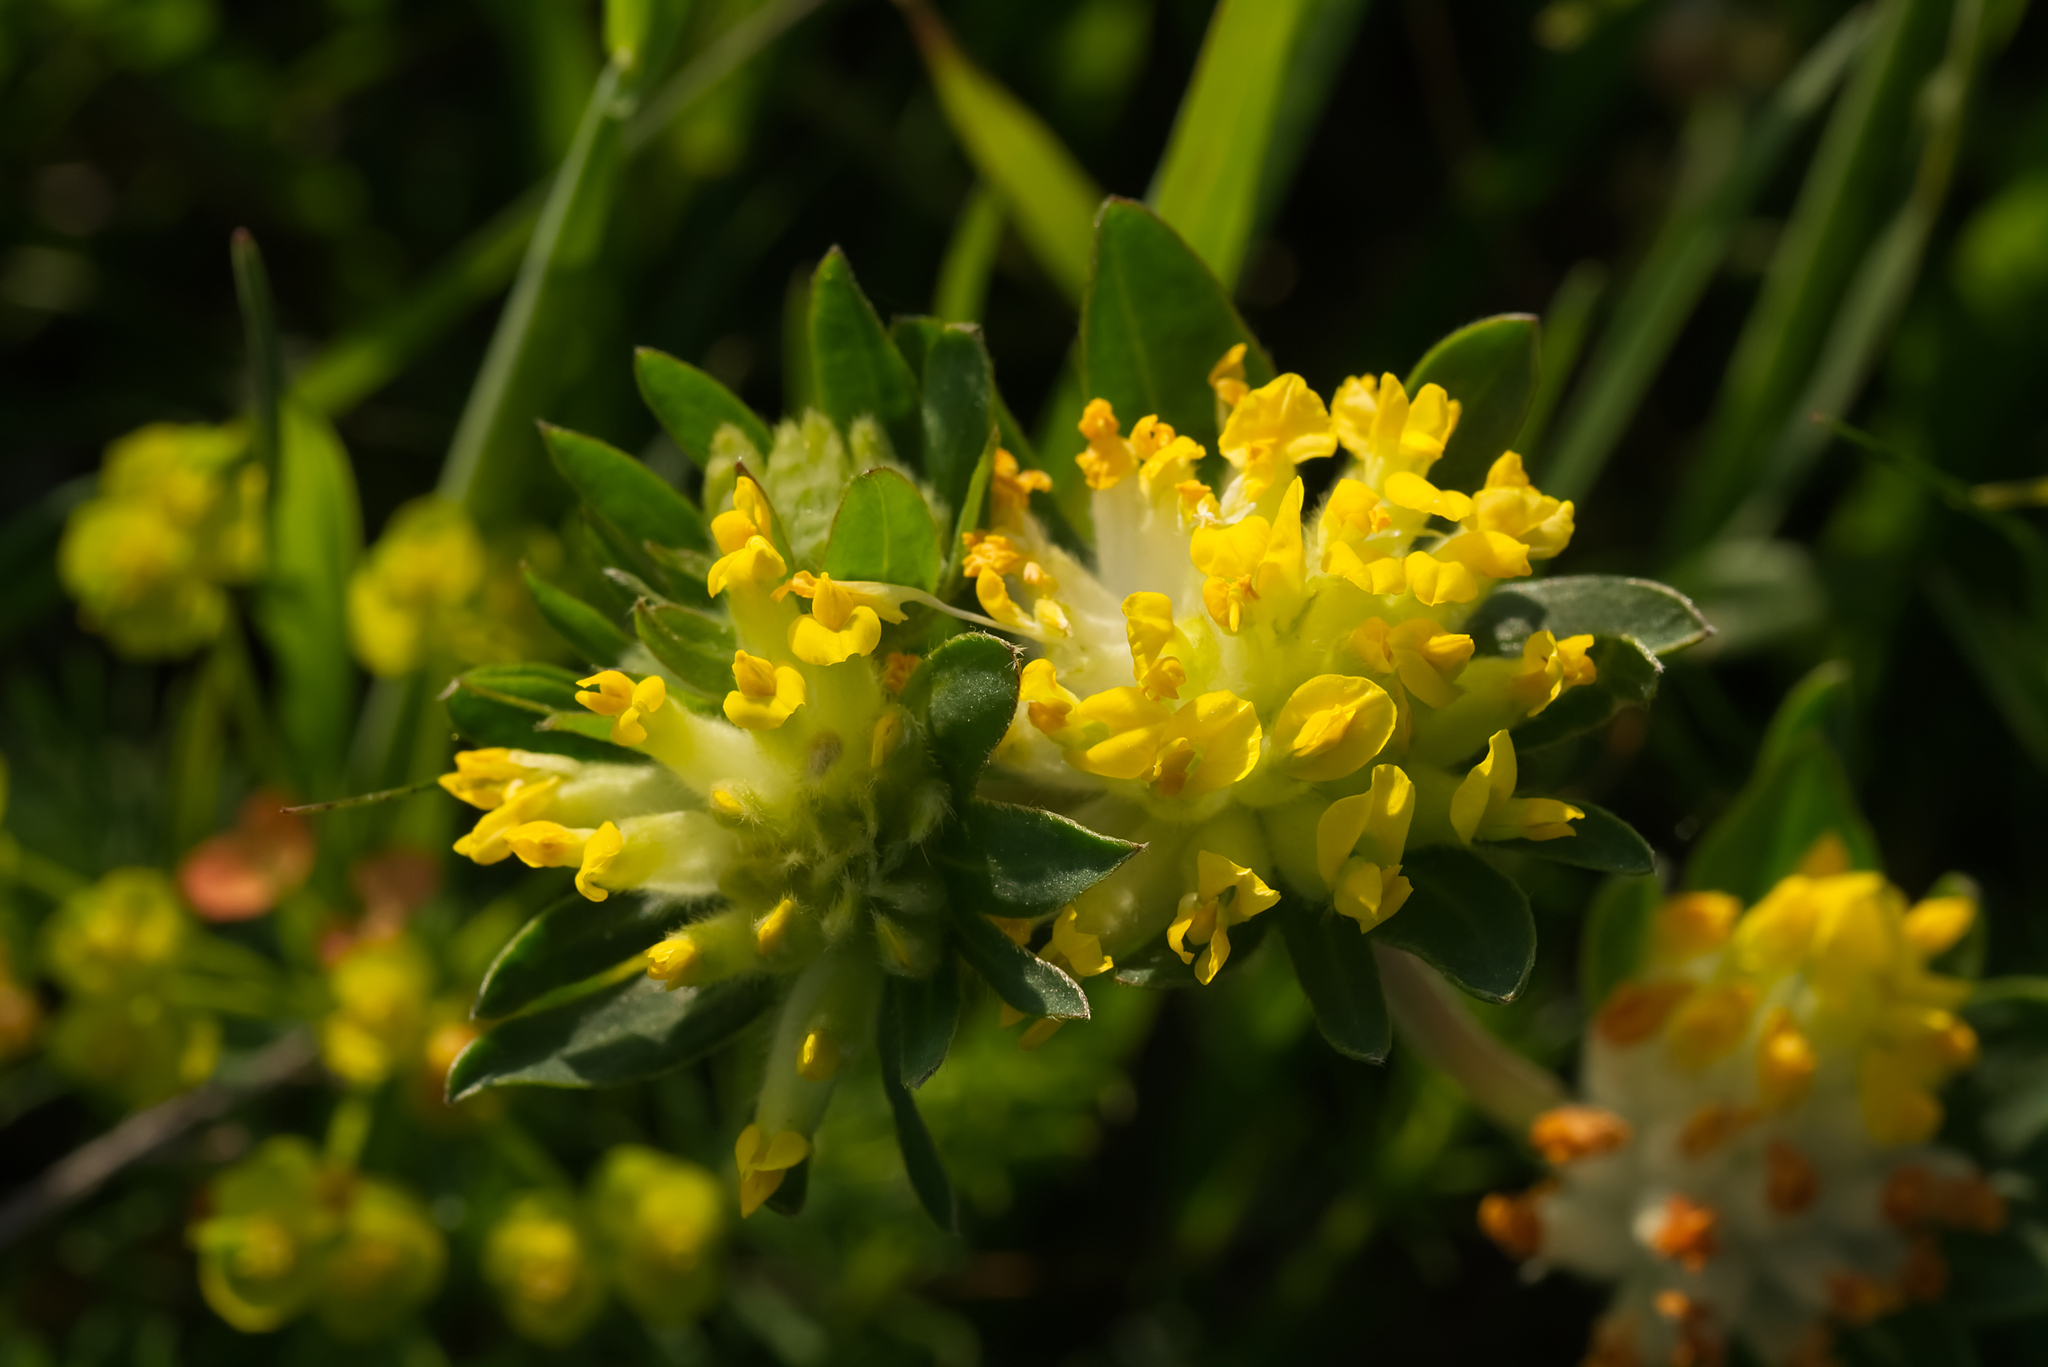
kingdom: Plantae
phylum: Tracheophyta
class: Magnoliopsida
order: Fabales
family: Fabaceae
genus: Anthyllis
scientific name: Anthyllis vulneraria
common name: Kidney vetch
